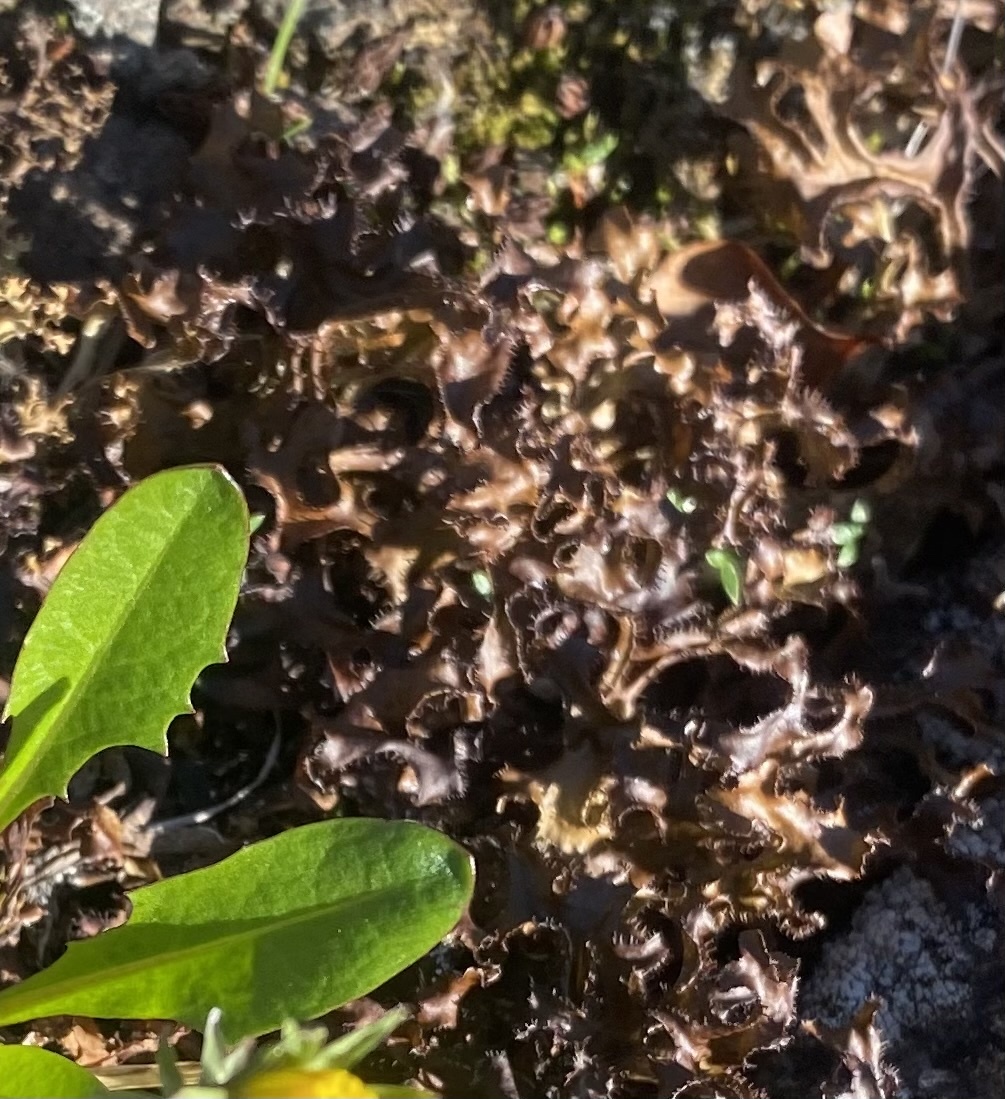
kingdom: Fungi
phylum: Ascomycota
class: Lecanoromycetes
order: Lecanorales
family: Parmeliaceae
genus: Cetraria
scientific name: Cetraria islandica
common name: Iceland lichen
